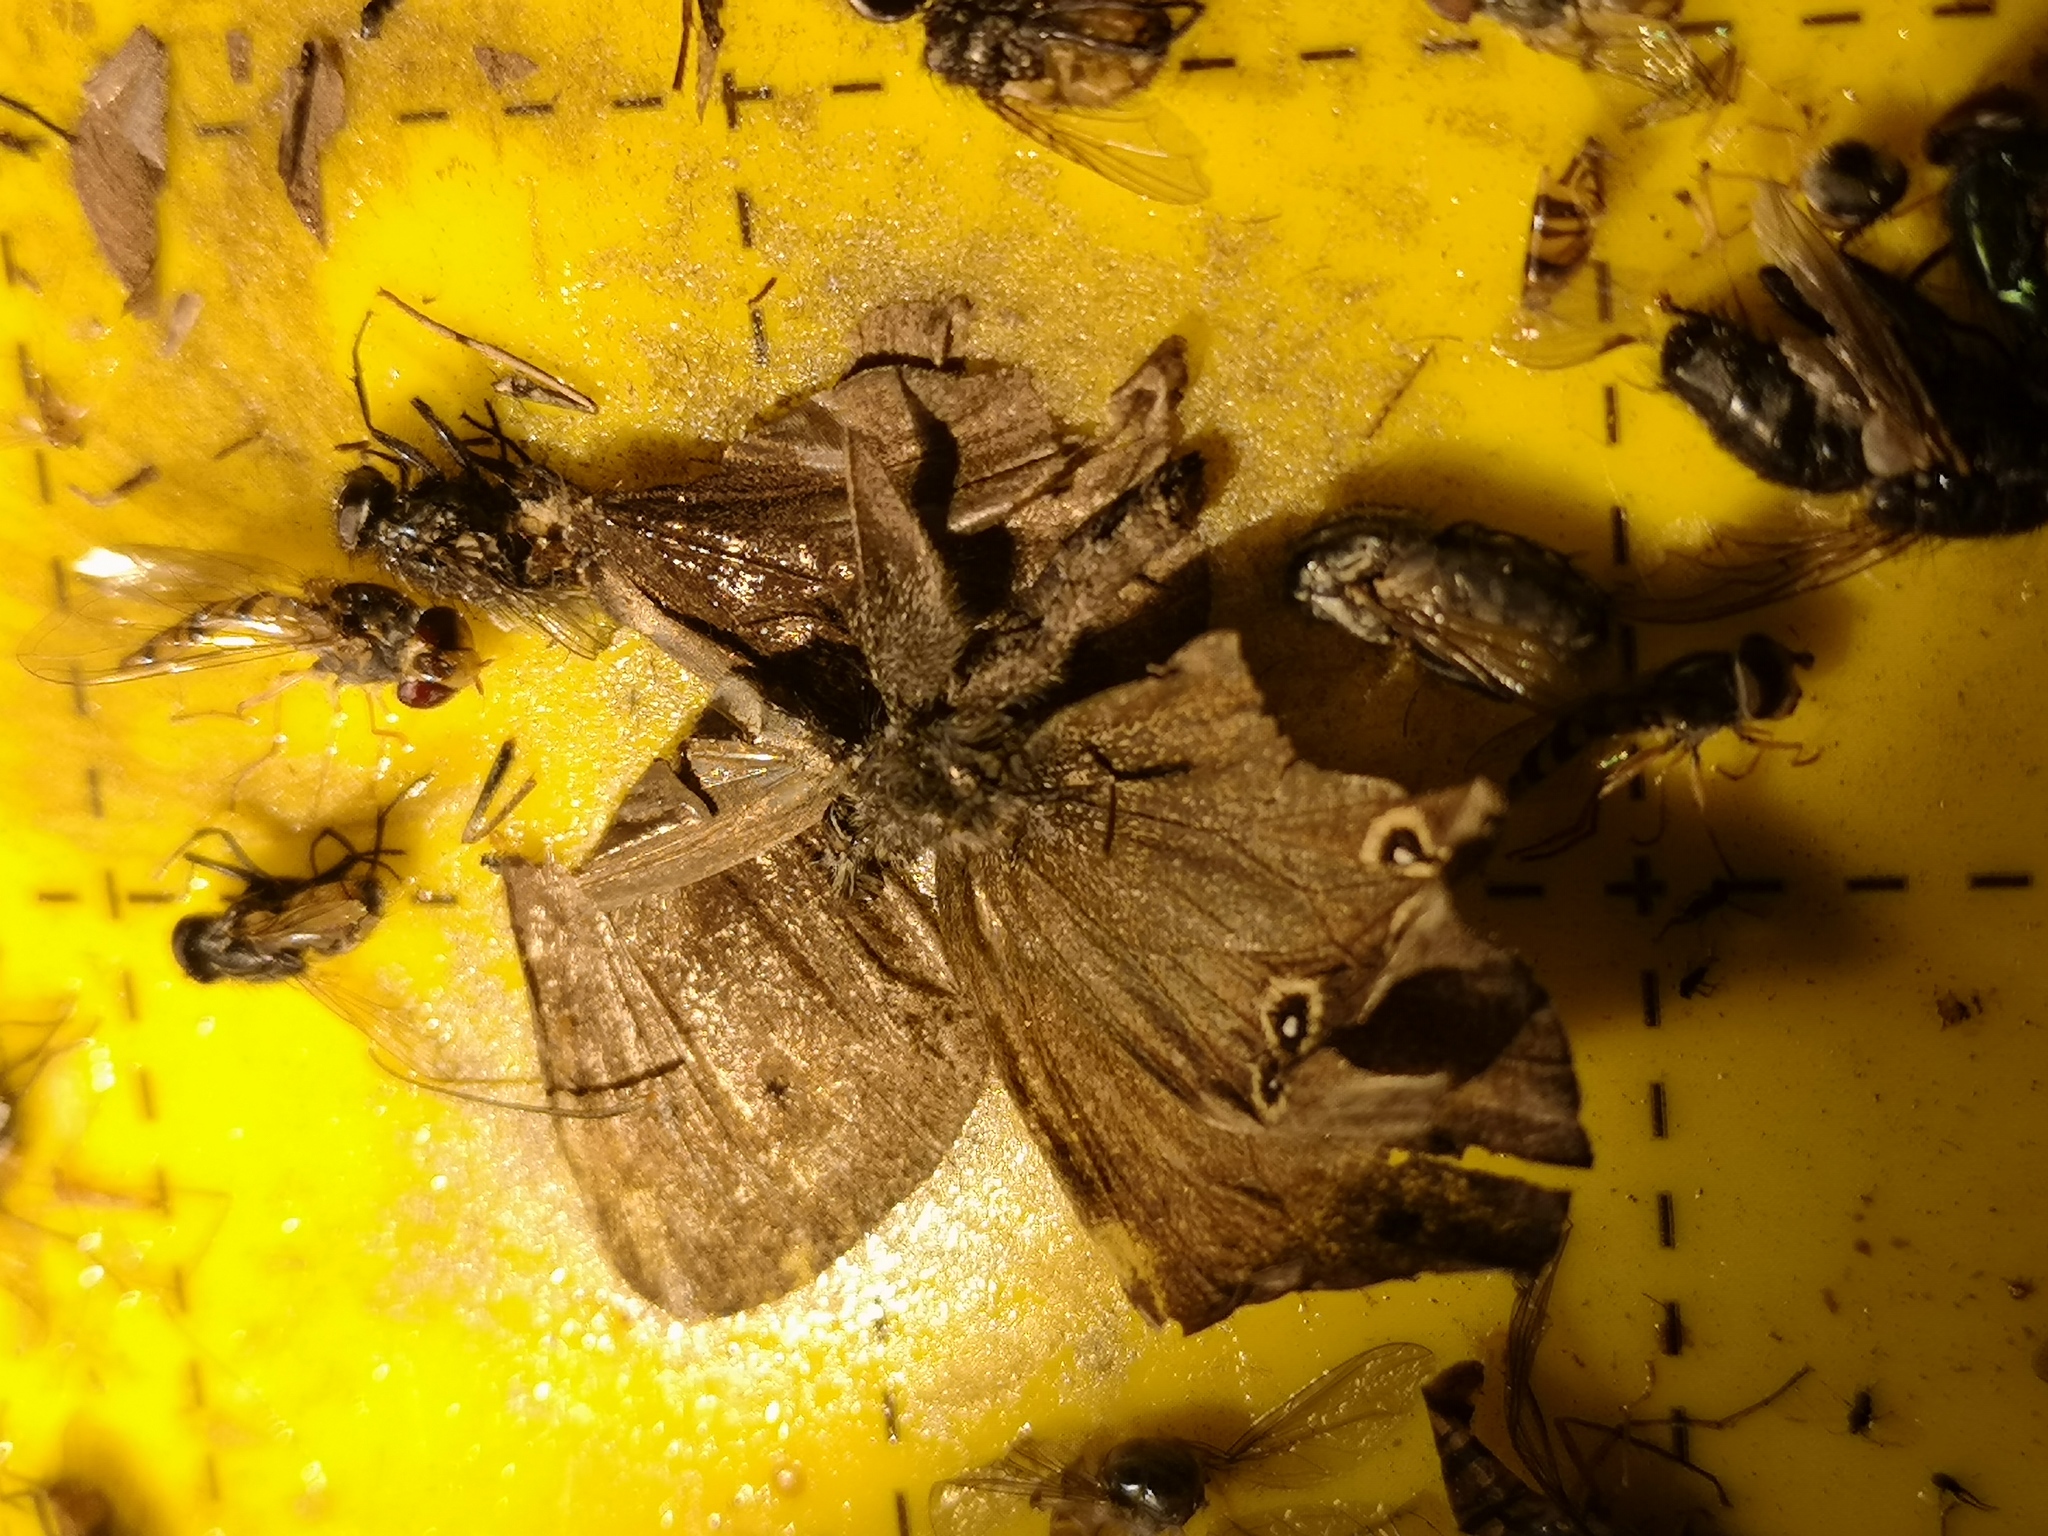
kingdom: Animalia
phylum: Arthropoda
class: Insecta
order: Lepidoptera
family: Nymphalidae
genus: Aphantopus
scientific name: Aphantopus hyperantus
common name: Ringlet
